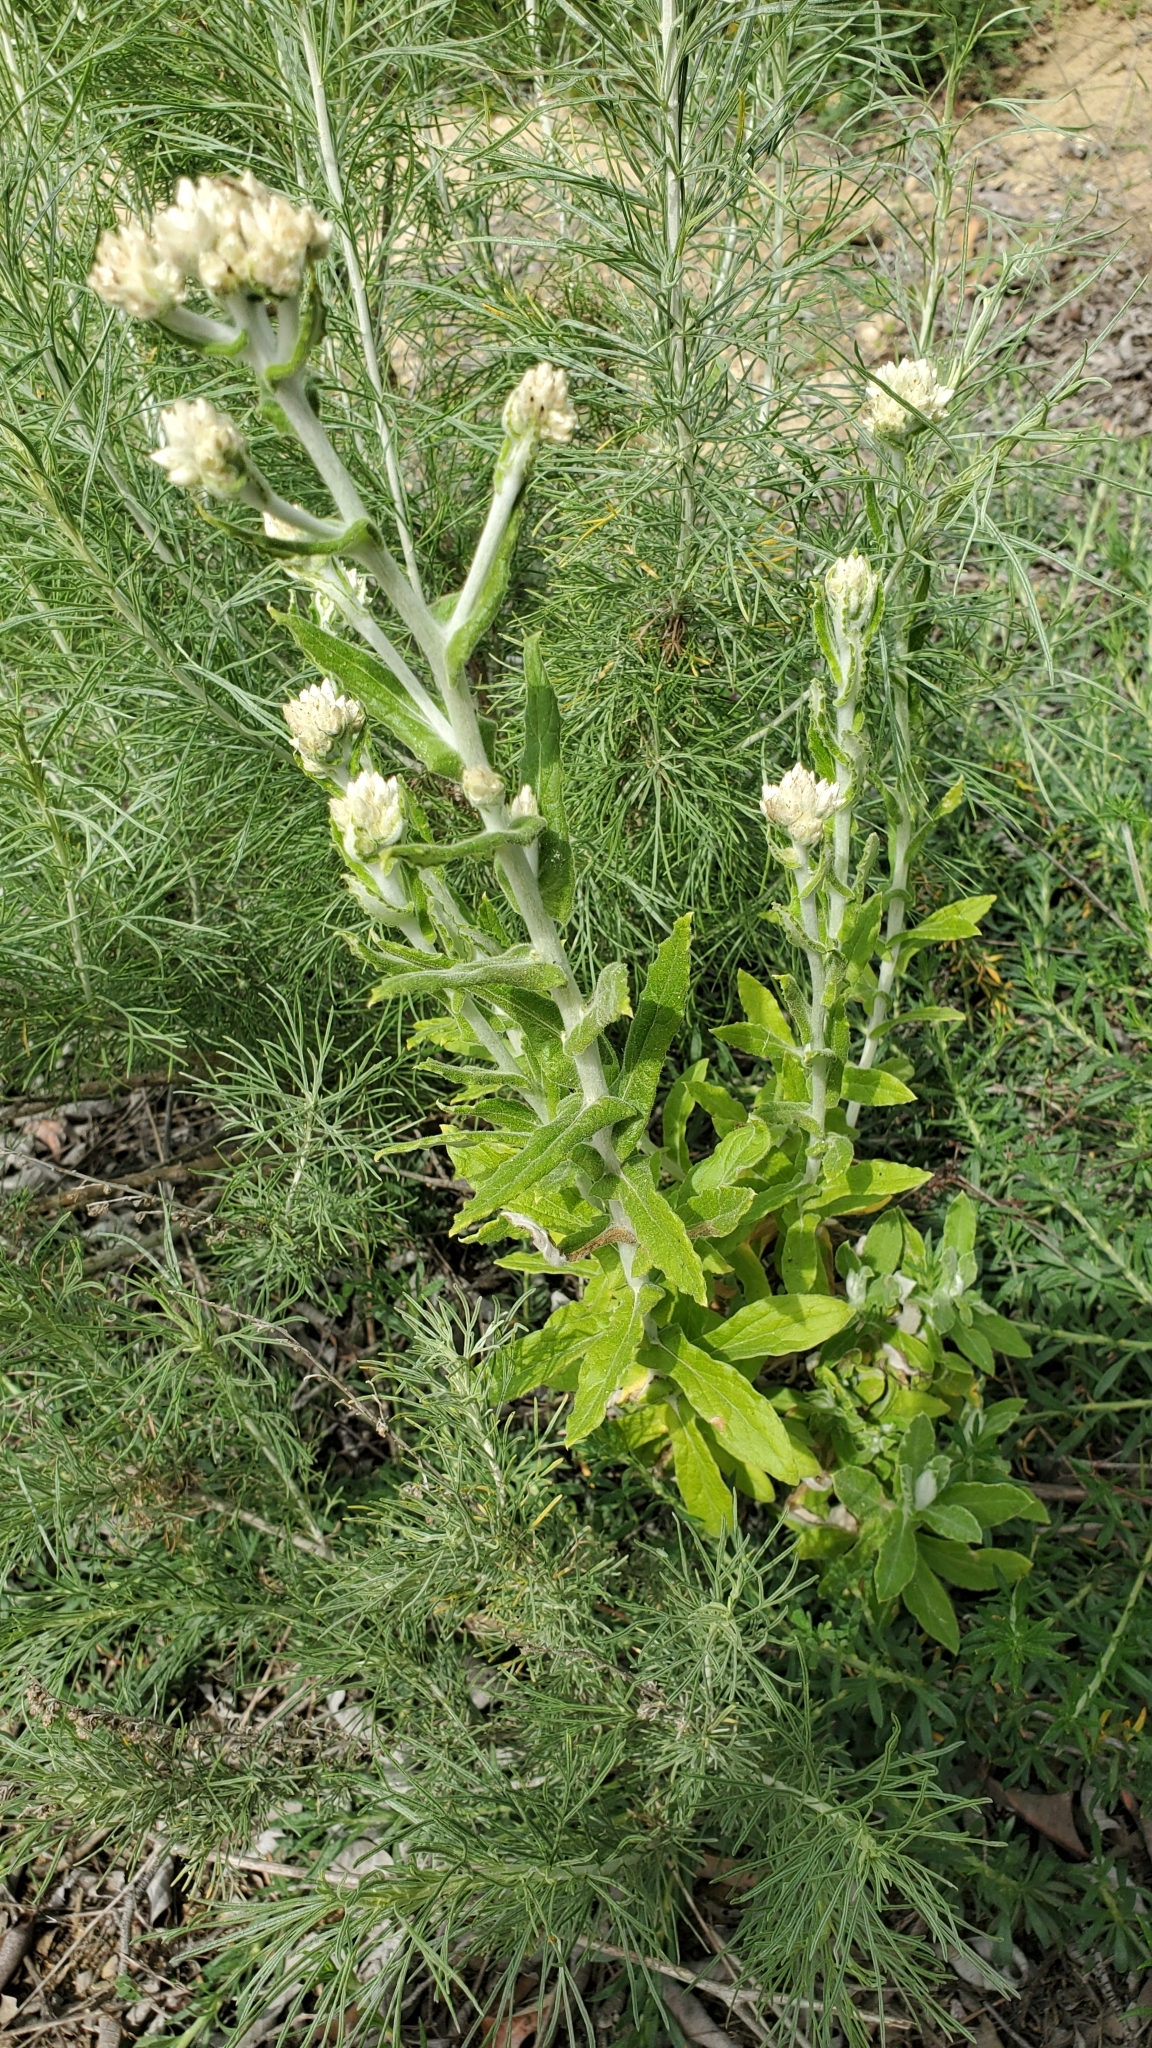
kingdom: Plantae
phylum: Tracheophyta
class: Magnoliopsida
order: Asterales
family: Asteraceae
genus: Pseudognaphalium
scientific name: Pseudognaphalium biolettii
